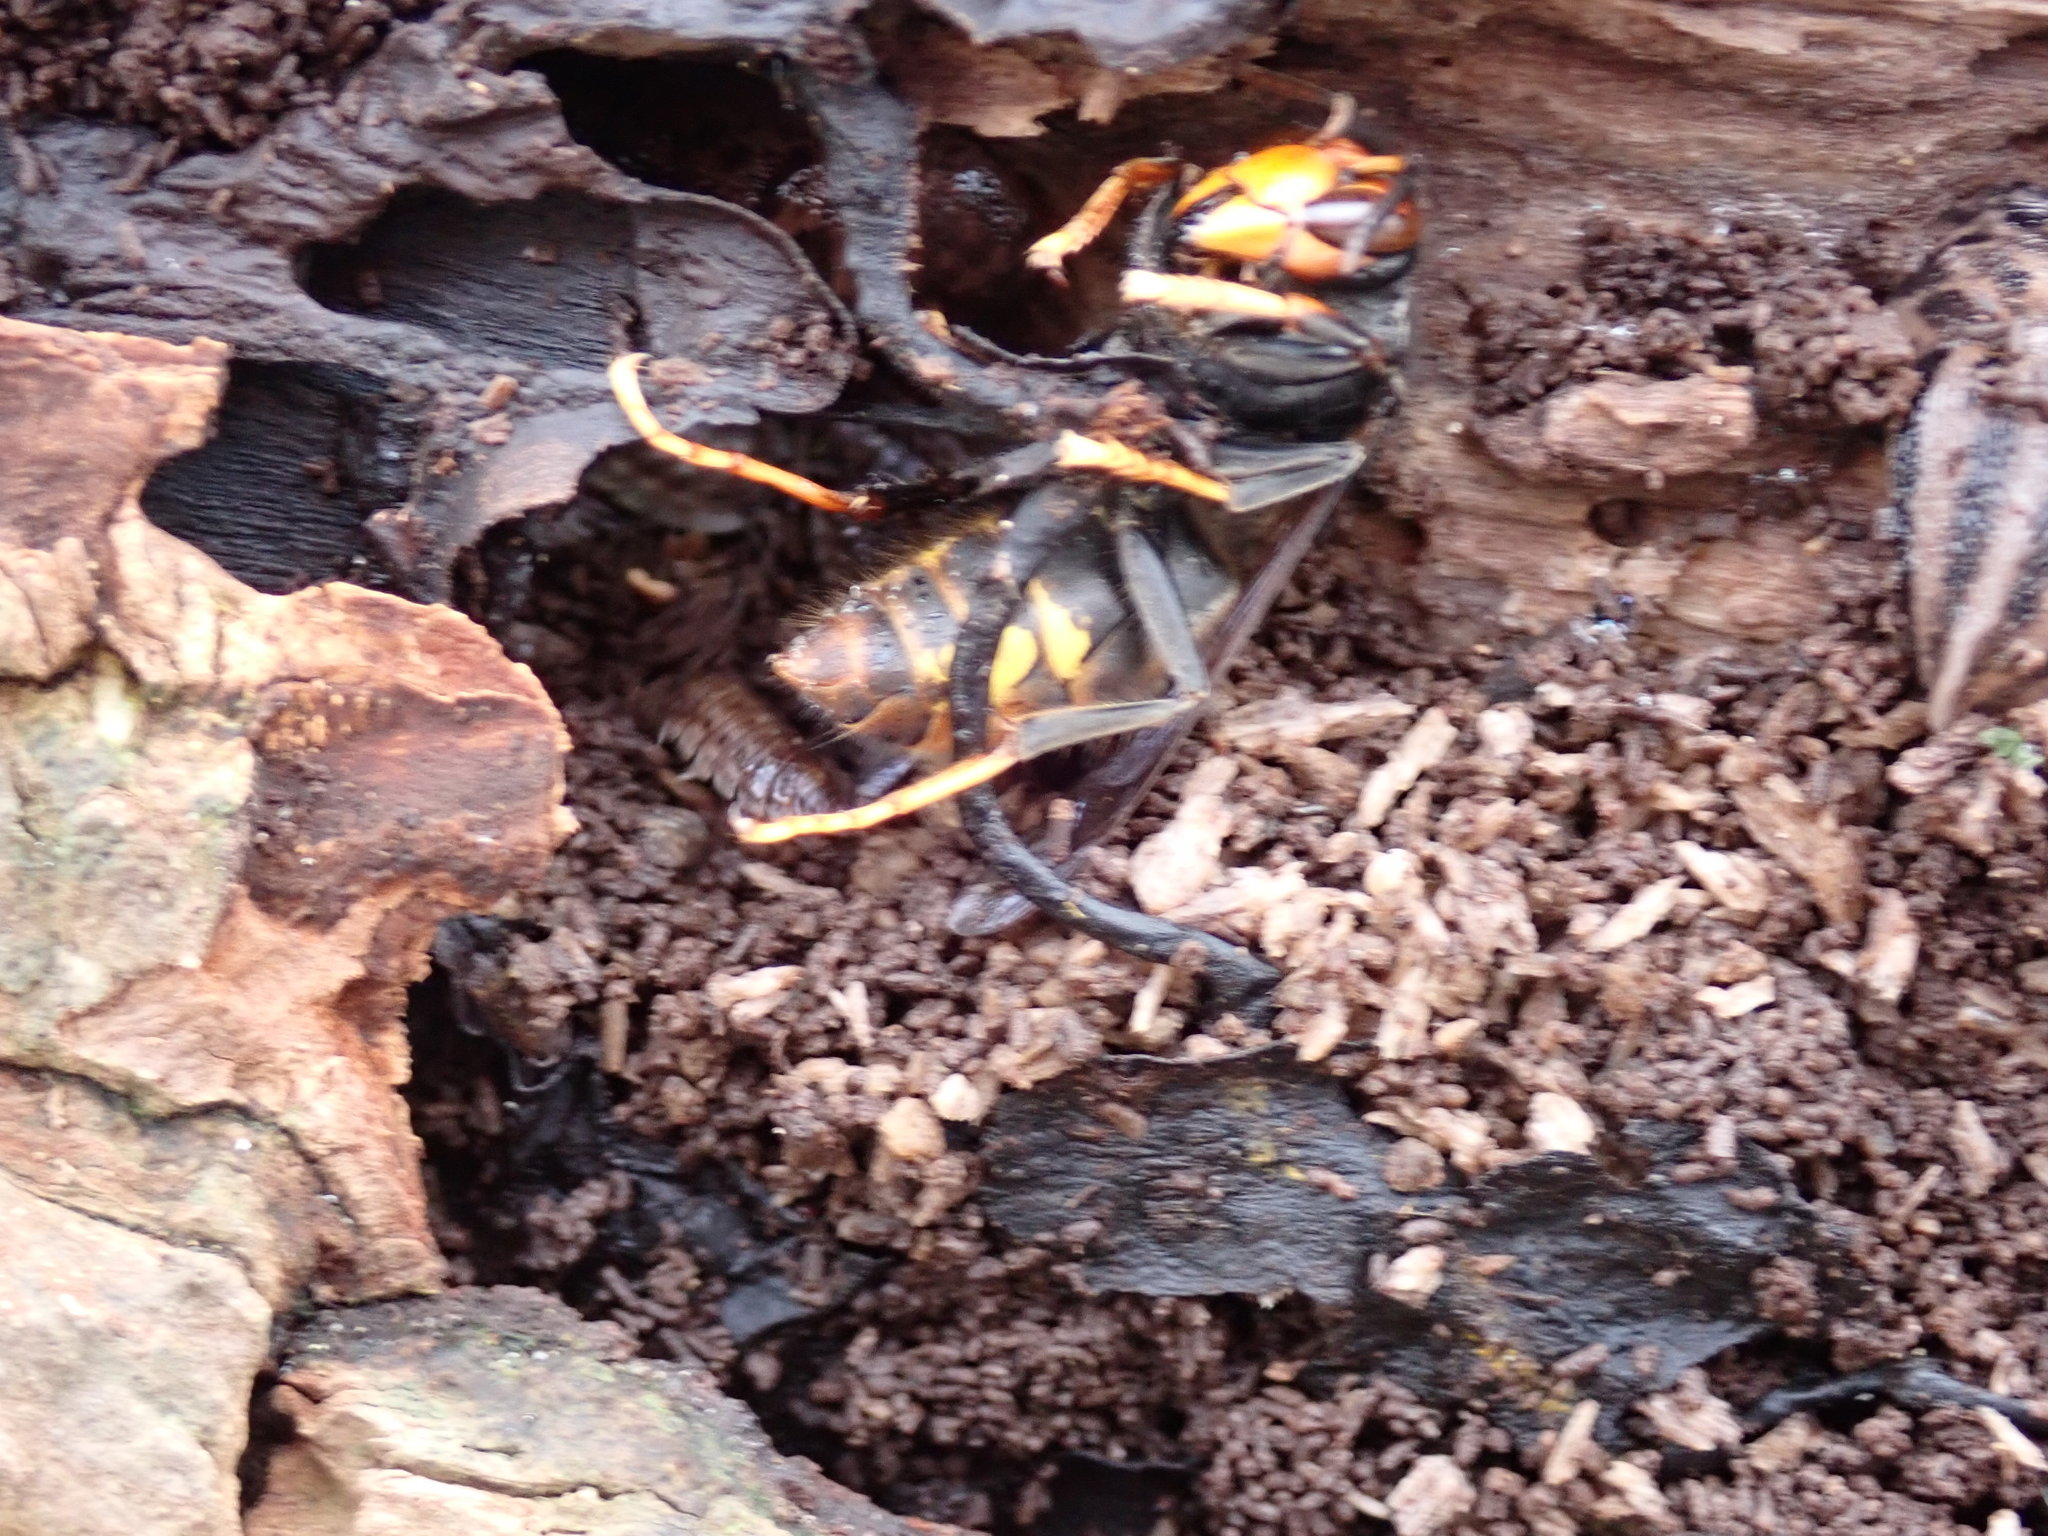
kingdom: Animalia
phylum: Arthropoda
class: Insecta
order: Hymenoptera
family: Vespidae
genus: Vespa
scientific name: Vespa velutina
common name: Asian hornet
